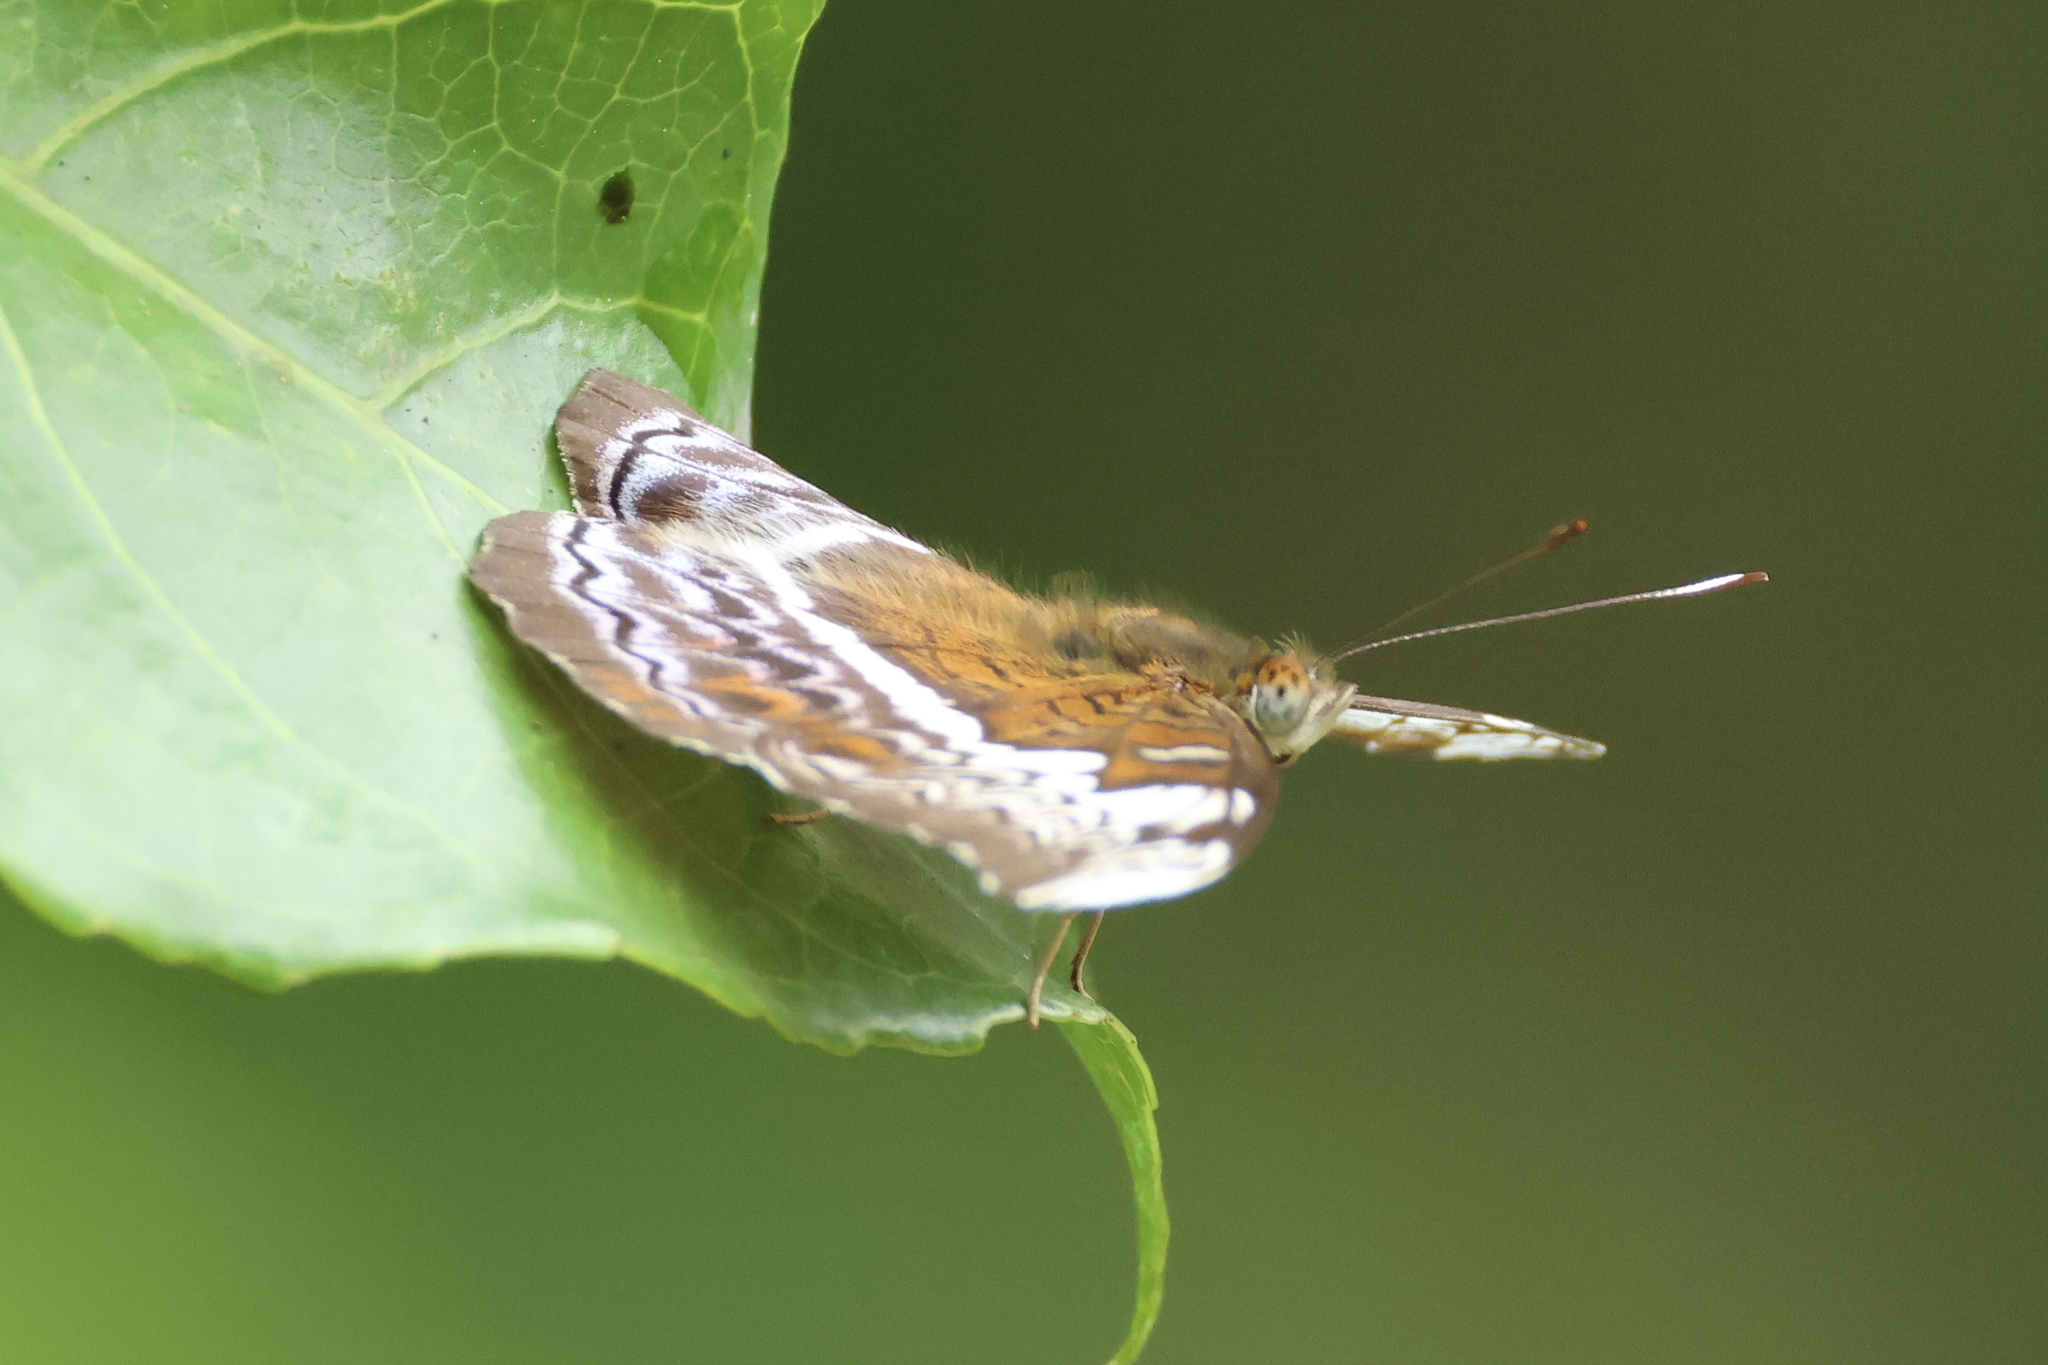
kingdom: Animalia
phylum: Arthropoda
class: Insecta
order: Lepidoptera
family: Nymphalidae
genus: Lebadea
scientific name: Lebadea martha
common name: Knight
